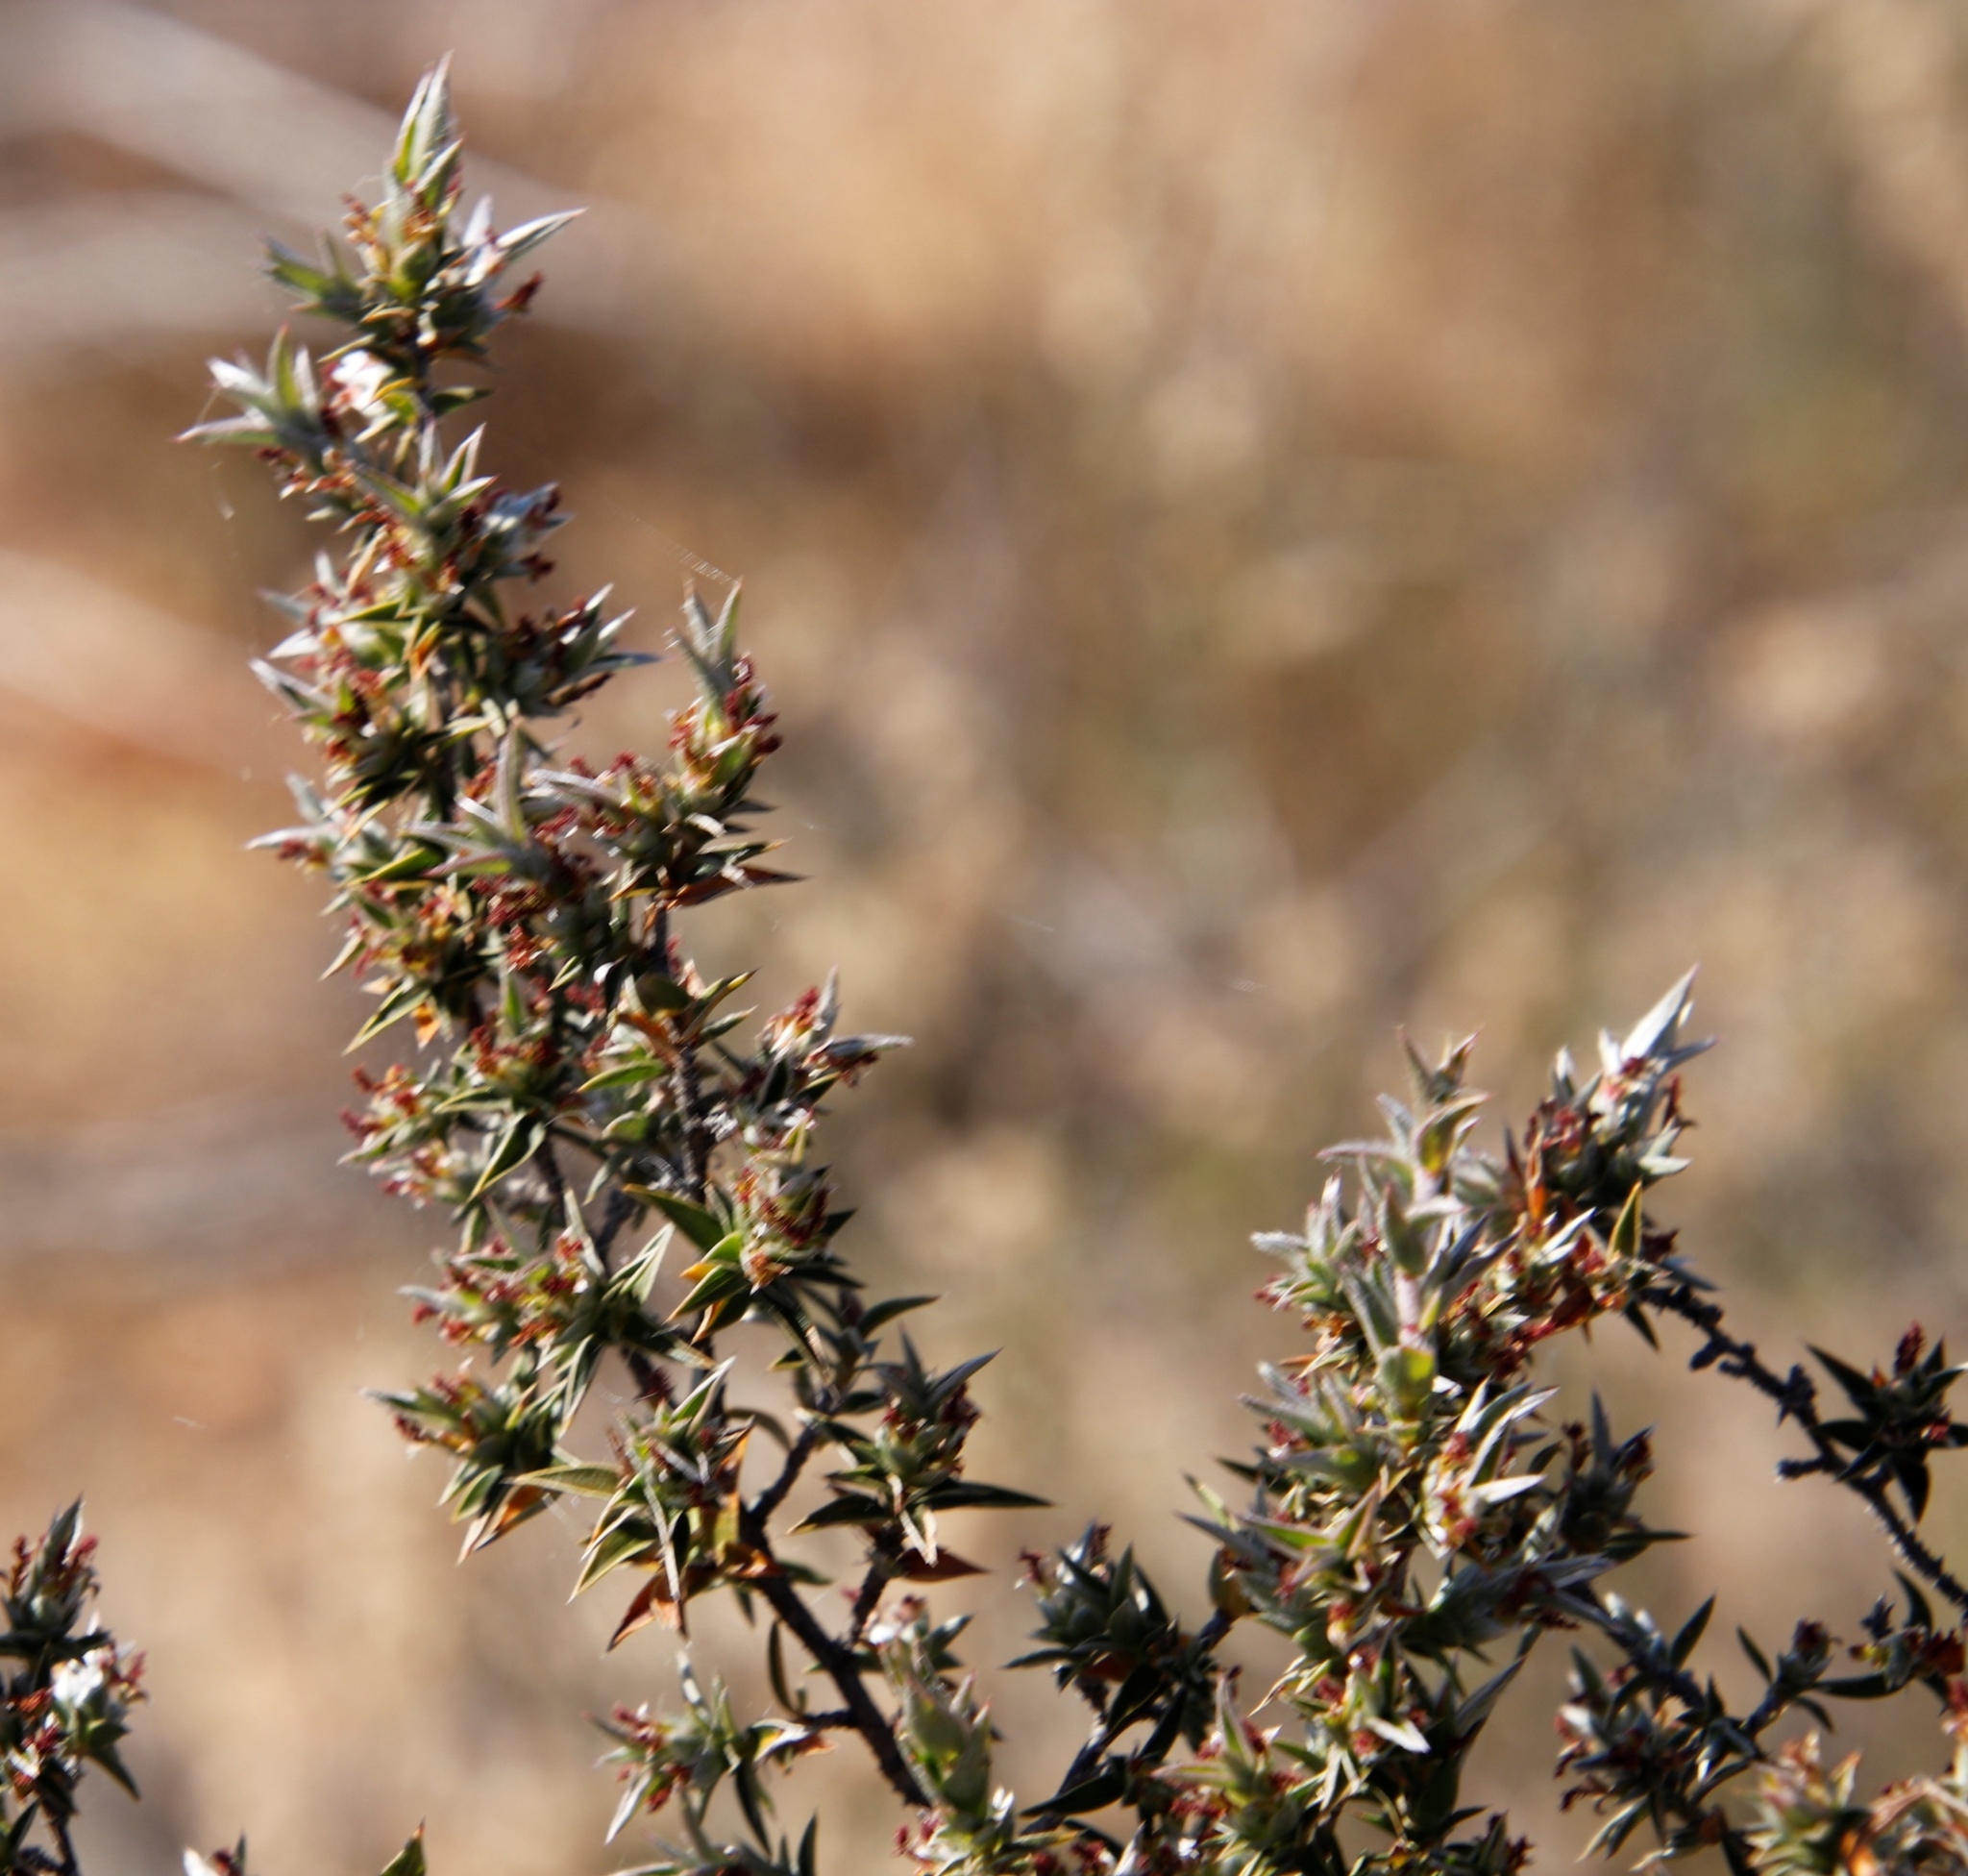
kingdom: Plantae
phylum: Tracheophyta
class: Magnoliopsida
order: Rosales
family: Rosaceae
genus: Cliffortia
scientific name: Cliffortia ruscifolia
